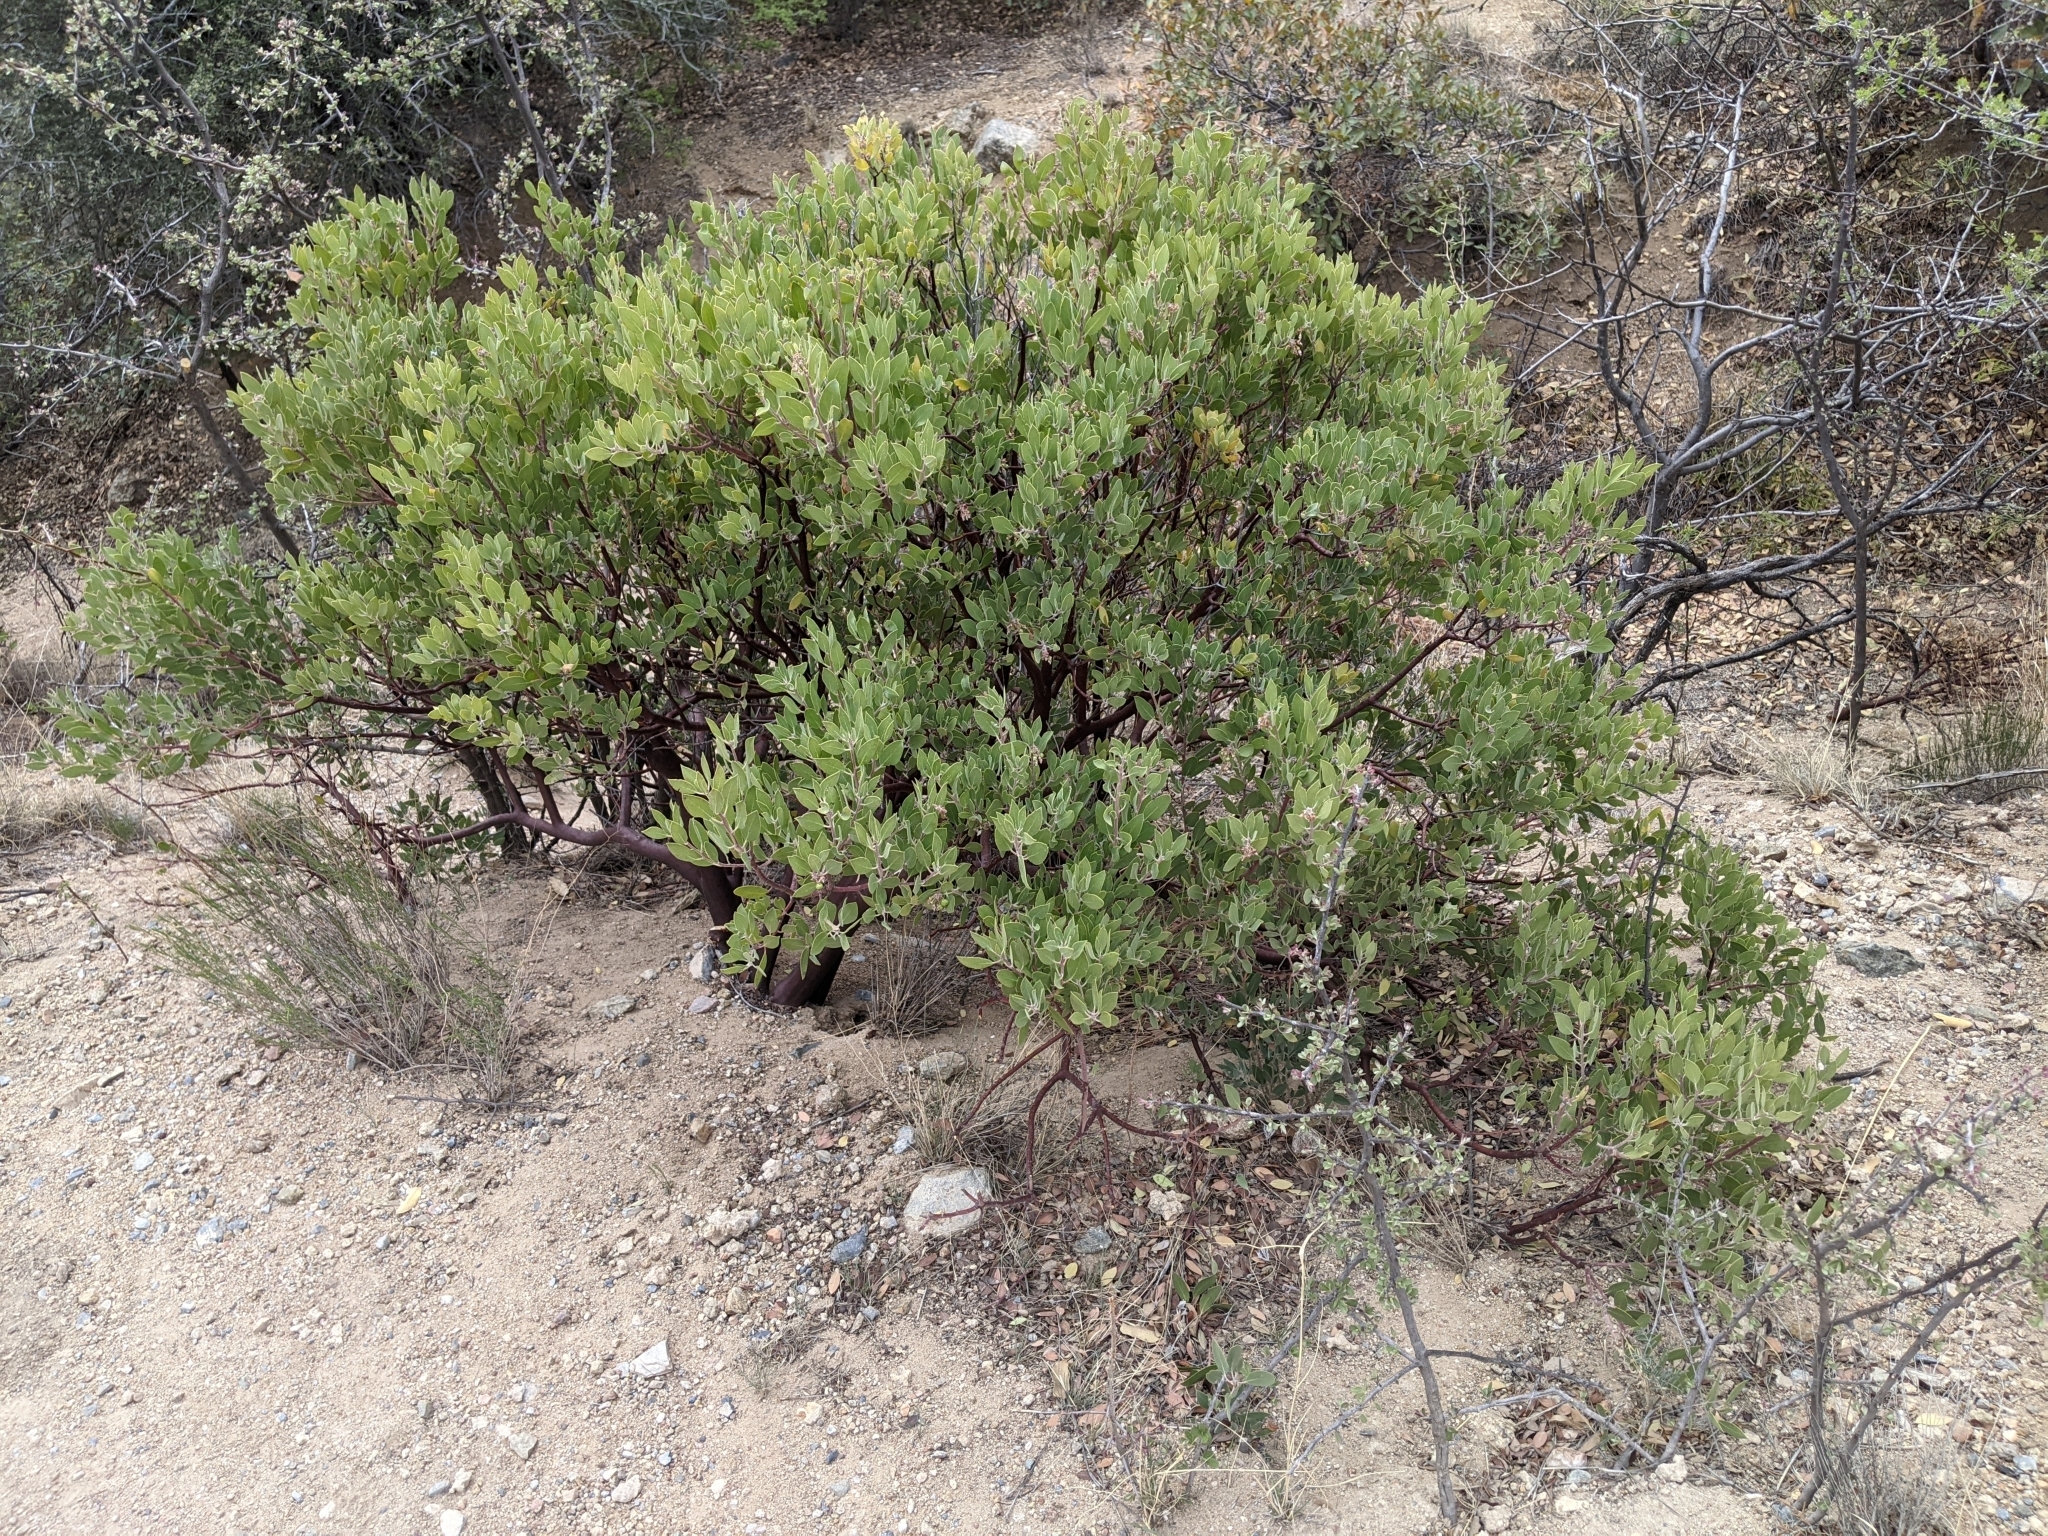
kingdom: Plantae
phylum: Tracheophyta
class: Magnoliopsida
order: Ericales
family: Ericaceae
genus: Arctostaphylos
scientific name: Arctostaphylos pungens
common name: Mexican manzanita
